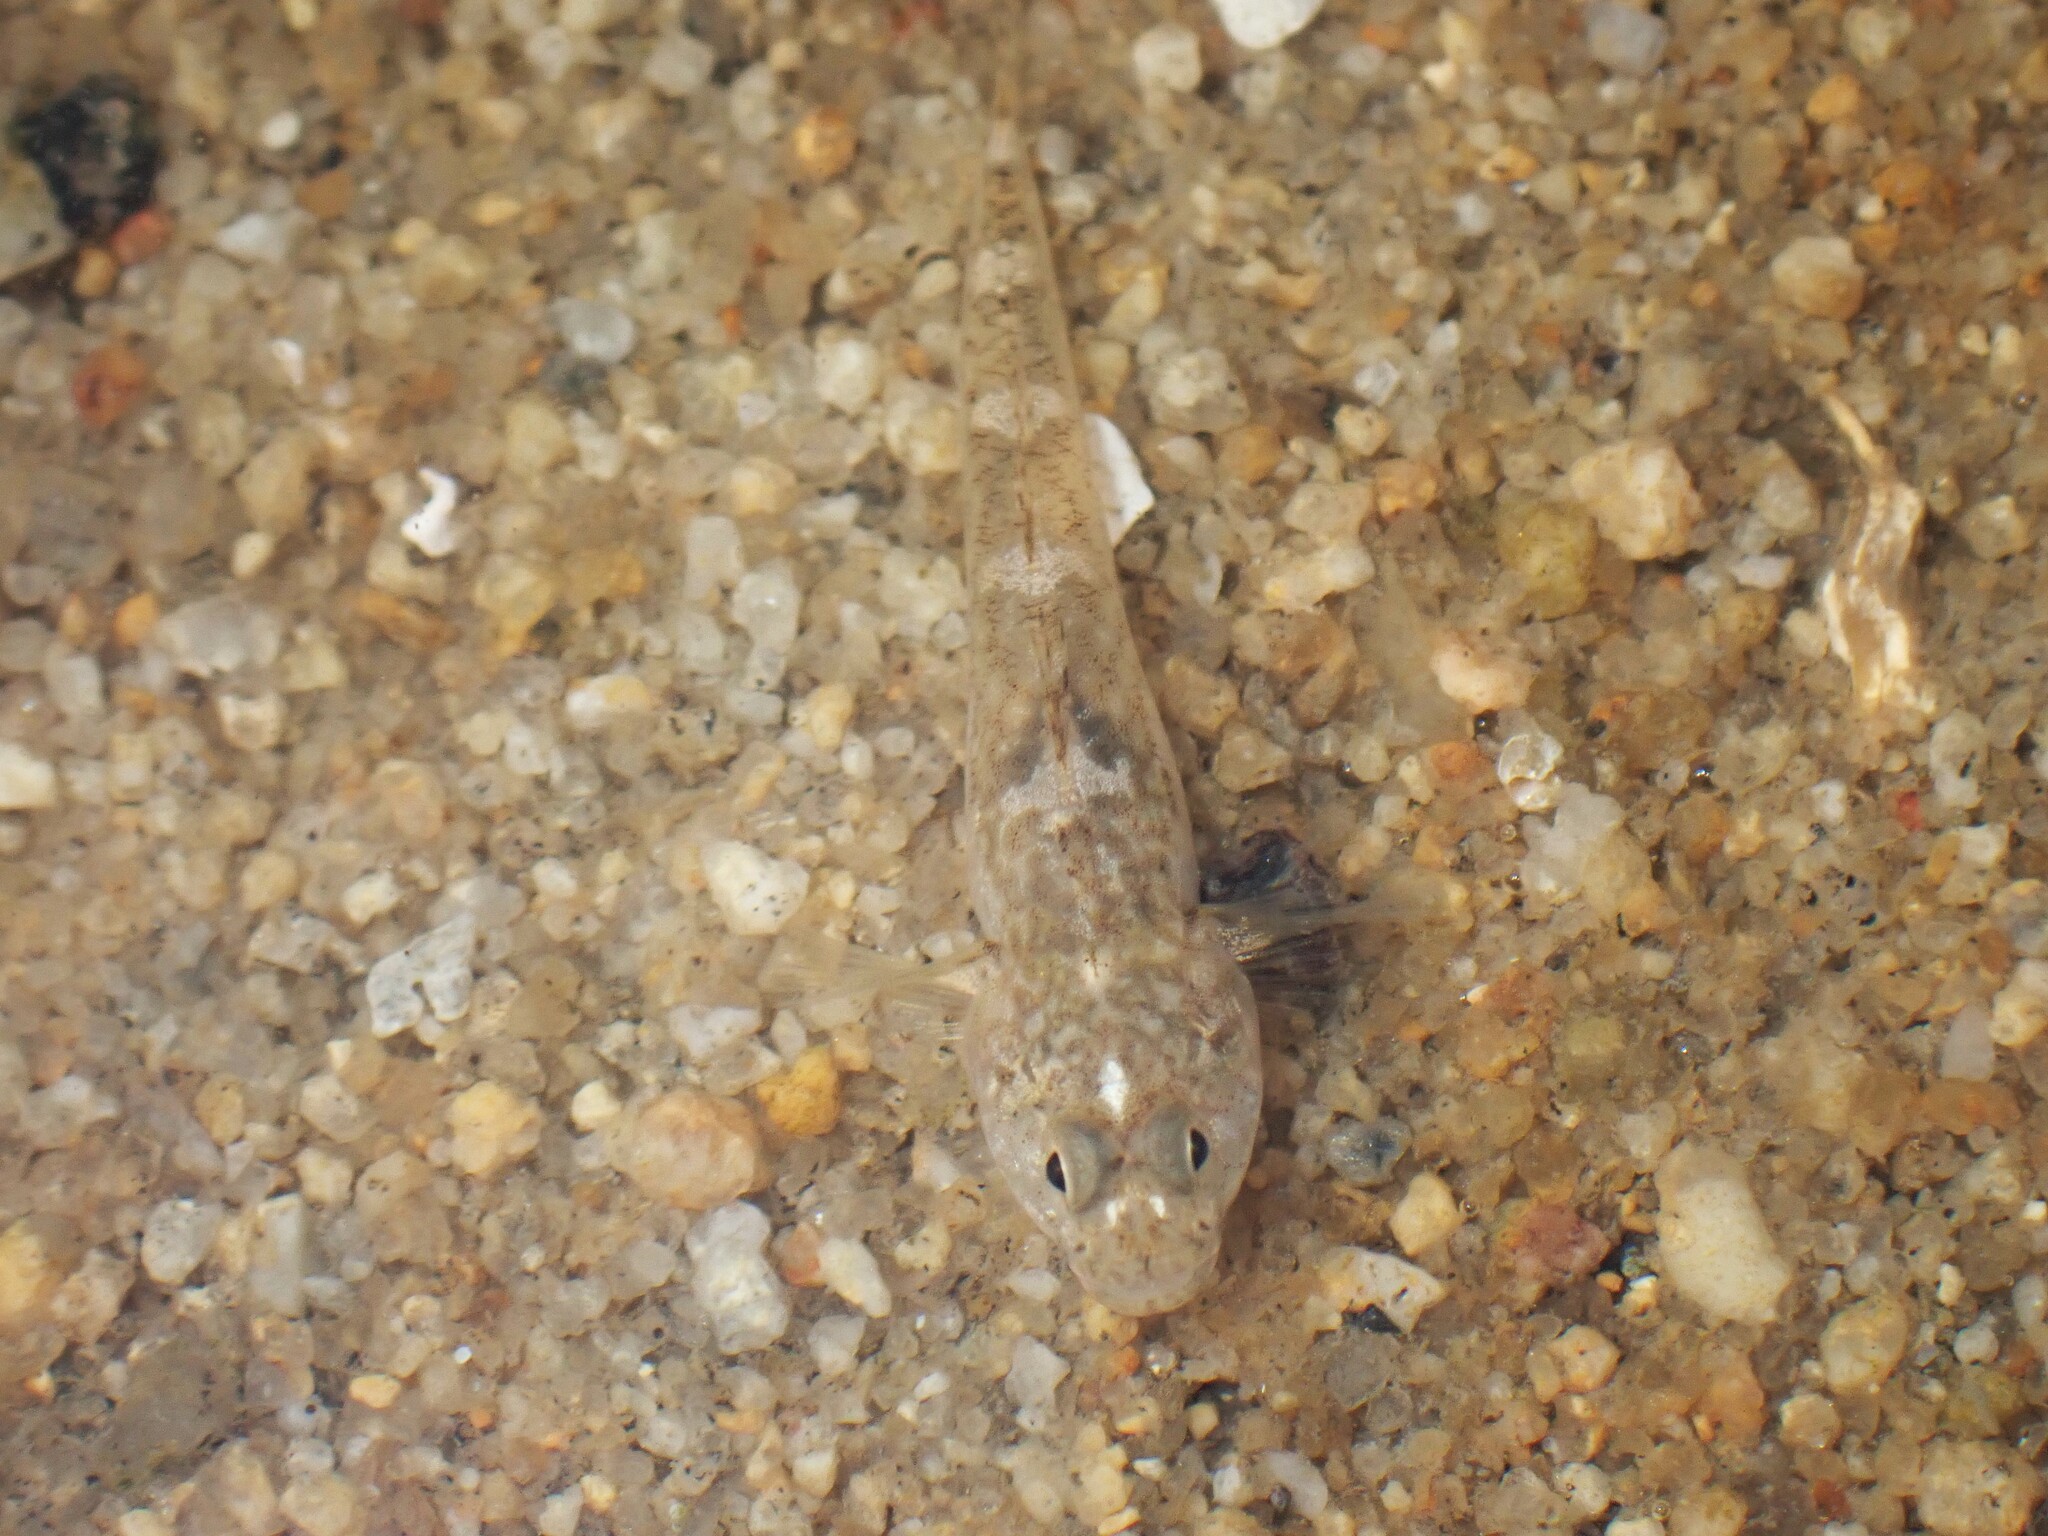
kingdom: Animalia
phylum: Chordata
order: Perciformes
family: Gobiidae
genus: Pomatoschistus
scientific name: Pomatoschistus microps
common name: Common goby
